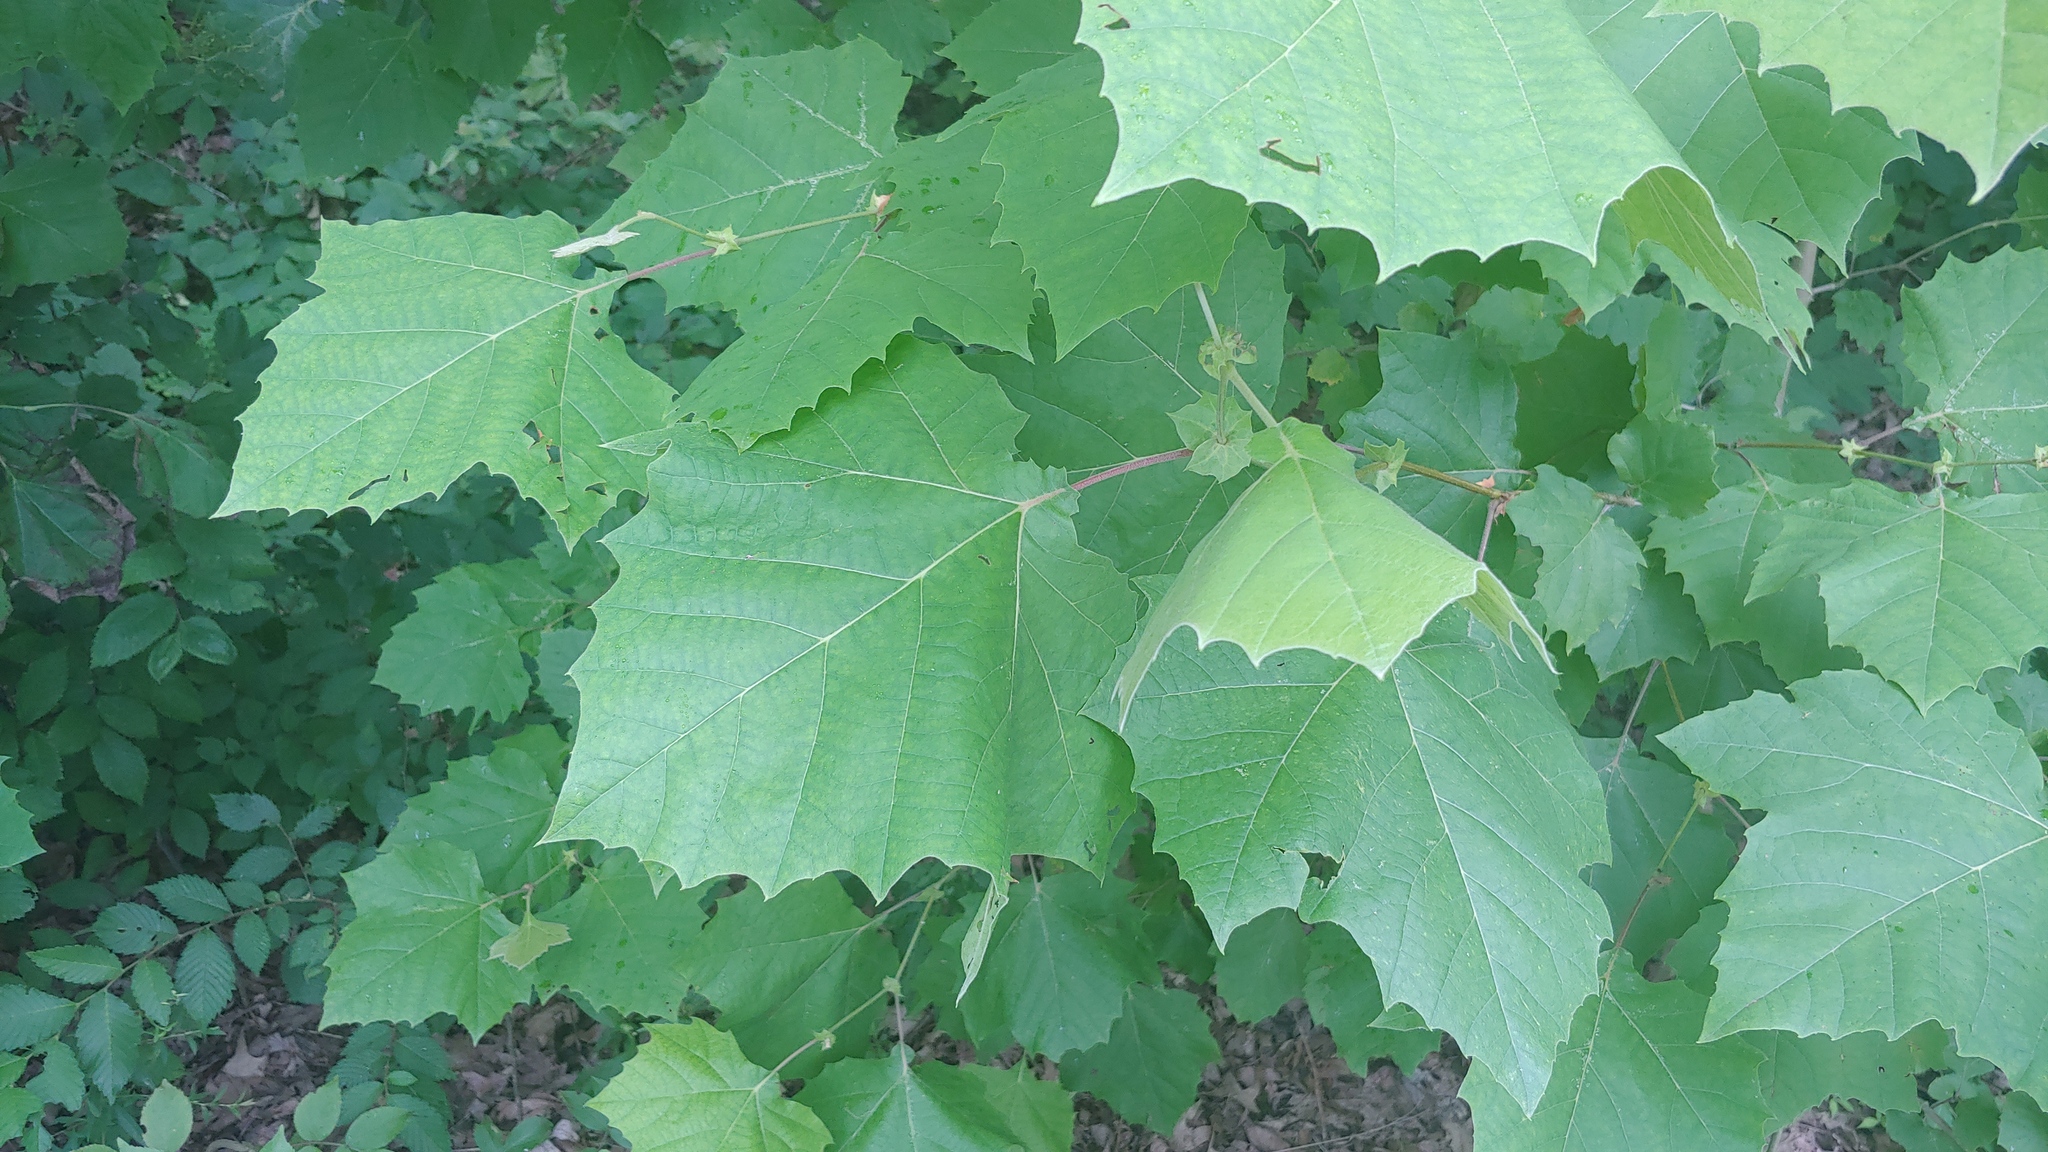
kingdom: Plantae
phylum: Tracheophyta
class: Magnoliopsida
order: Proteales
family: Platanaceae
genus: Platanus
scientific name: Platanus occidentalis
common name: American sycamore
